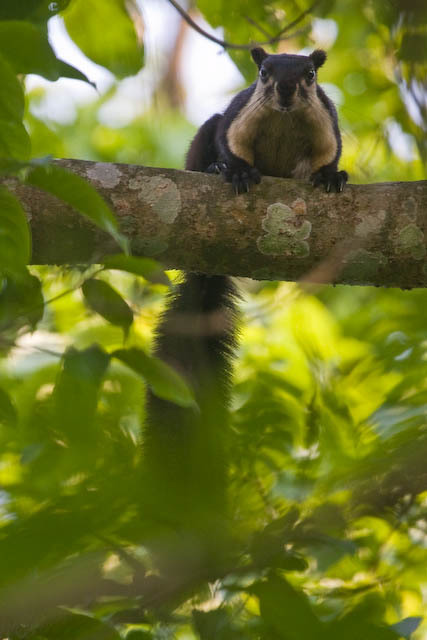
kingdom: Animalia
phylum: Chordata
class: Mammalia
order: Rodentia
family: Sciuridae
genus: Ratufa
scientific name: Ratufa bicolor
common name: Black giant squirrel
